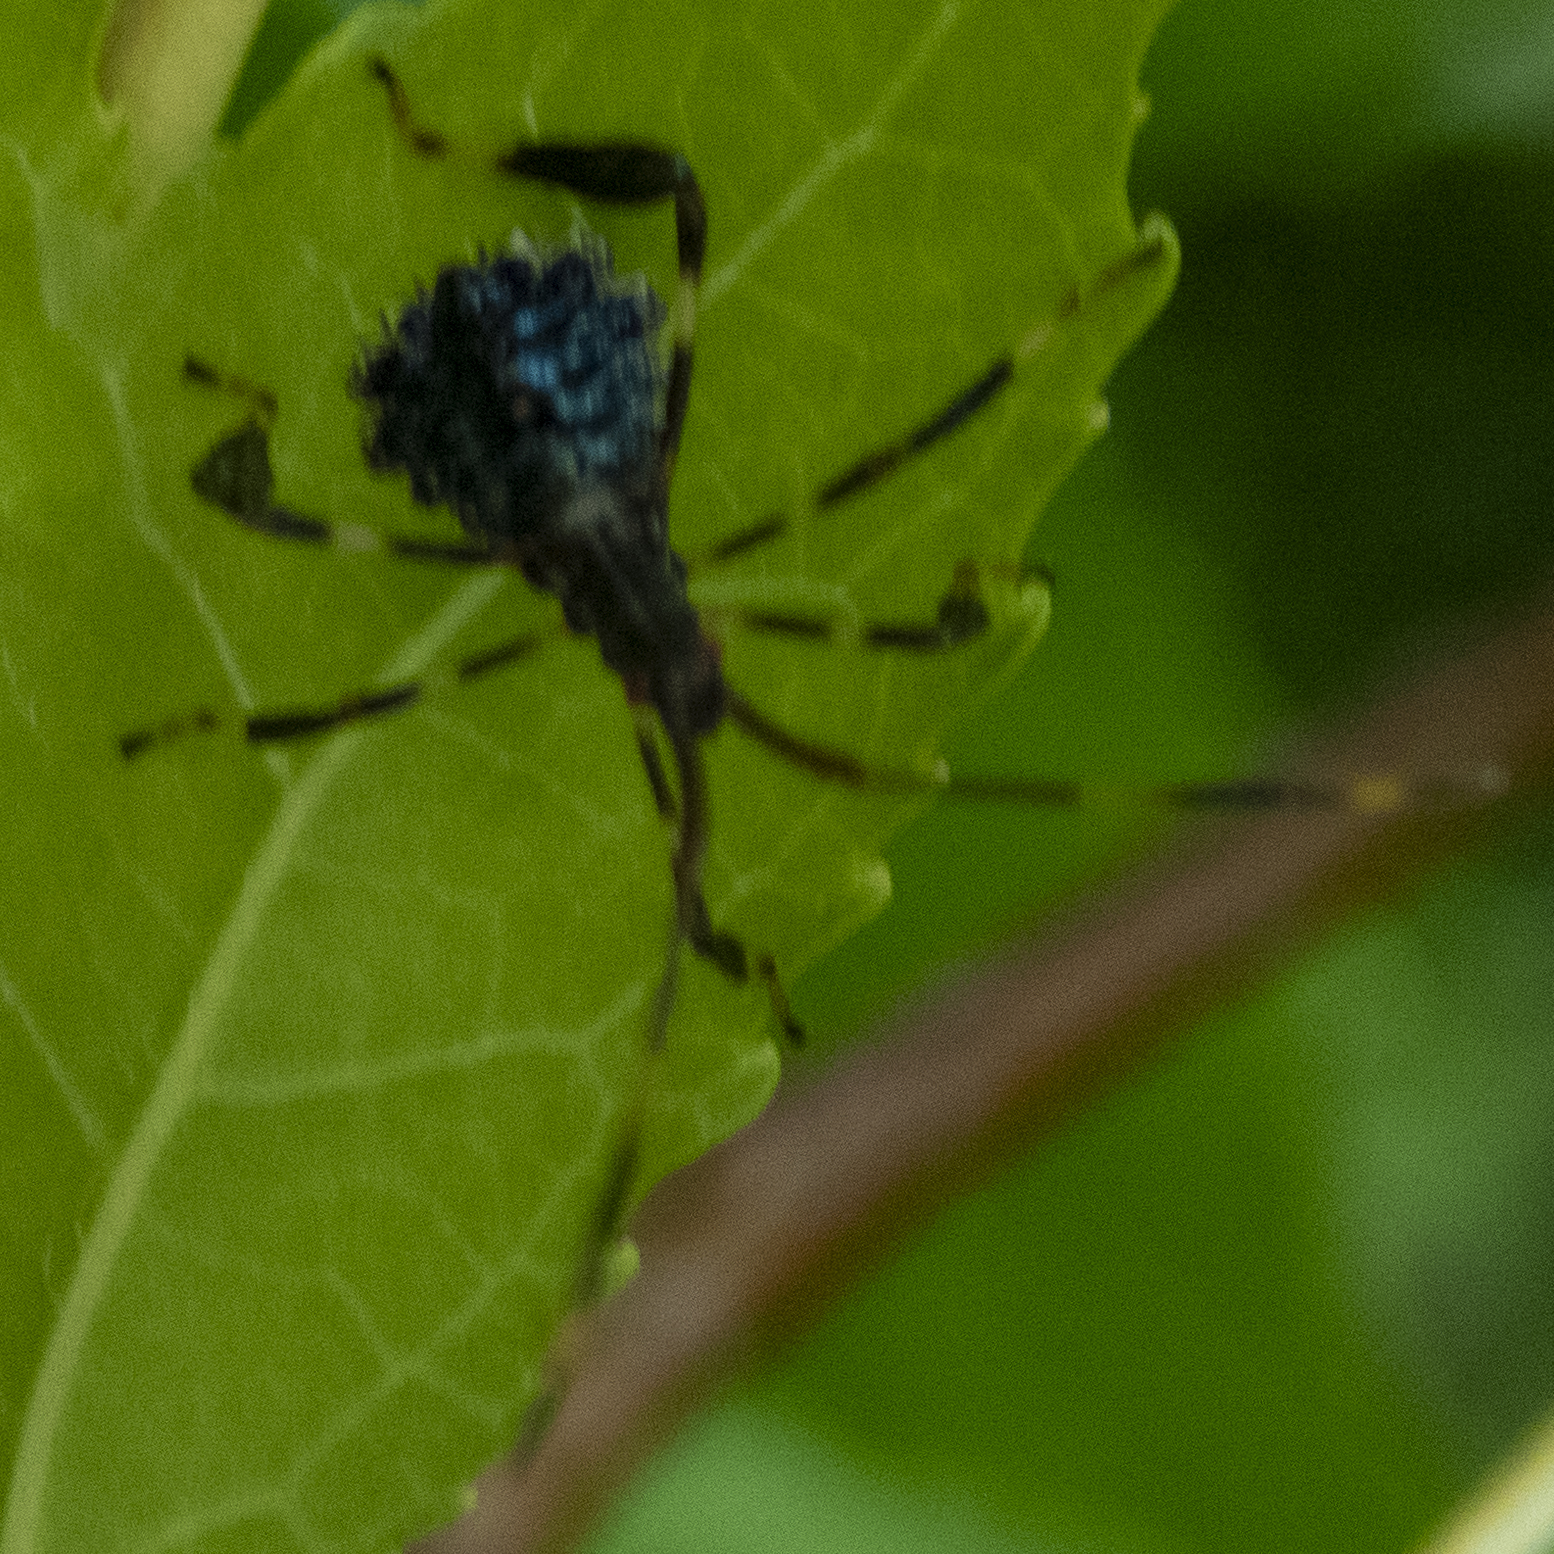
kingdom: Animalia
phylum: Arthropoda
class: Insecta
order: Hemiptera
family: Coreidae
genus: Acanthocephala
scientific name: Acanthocephala terminalis
